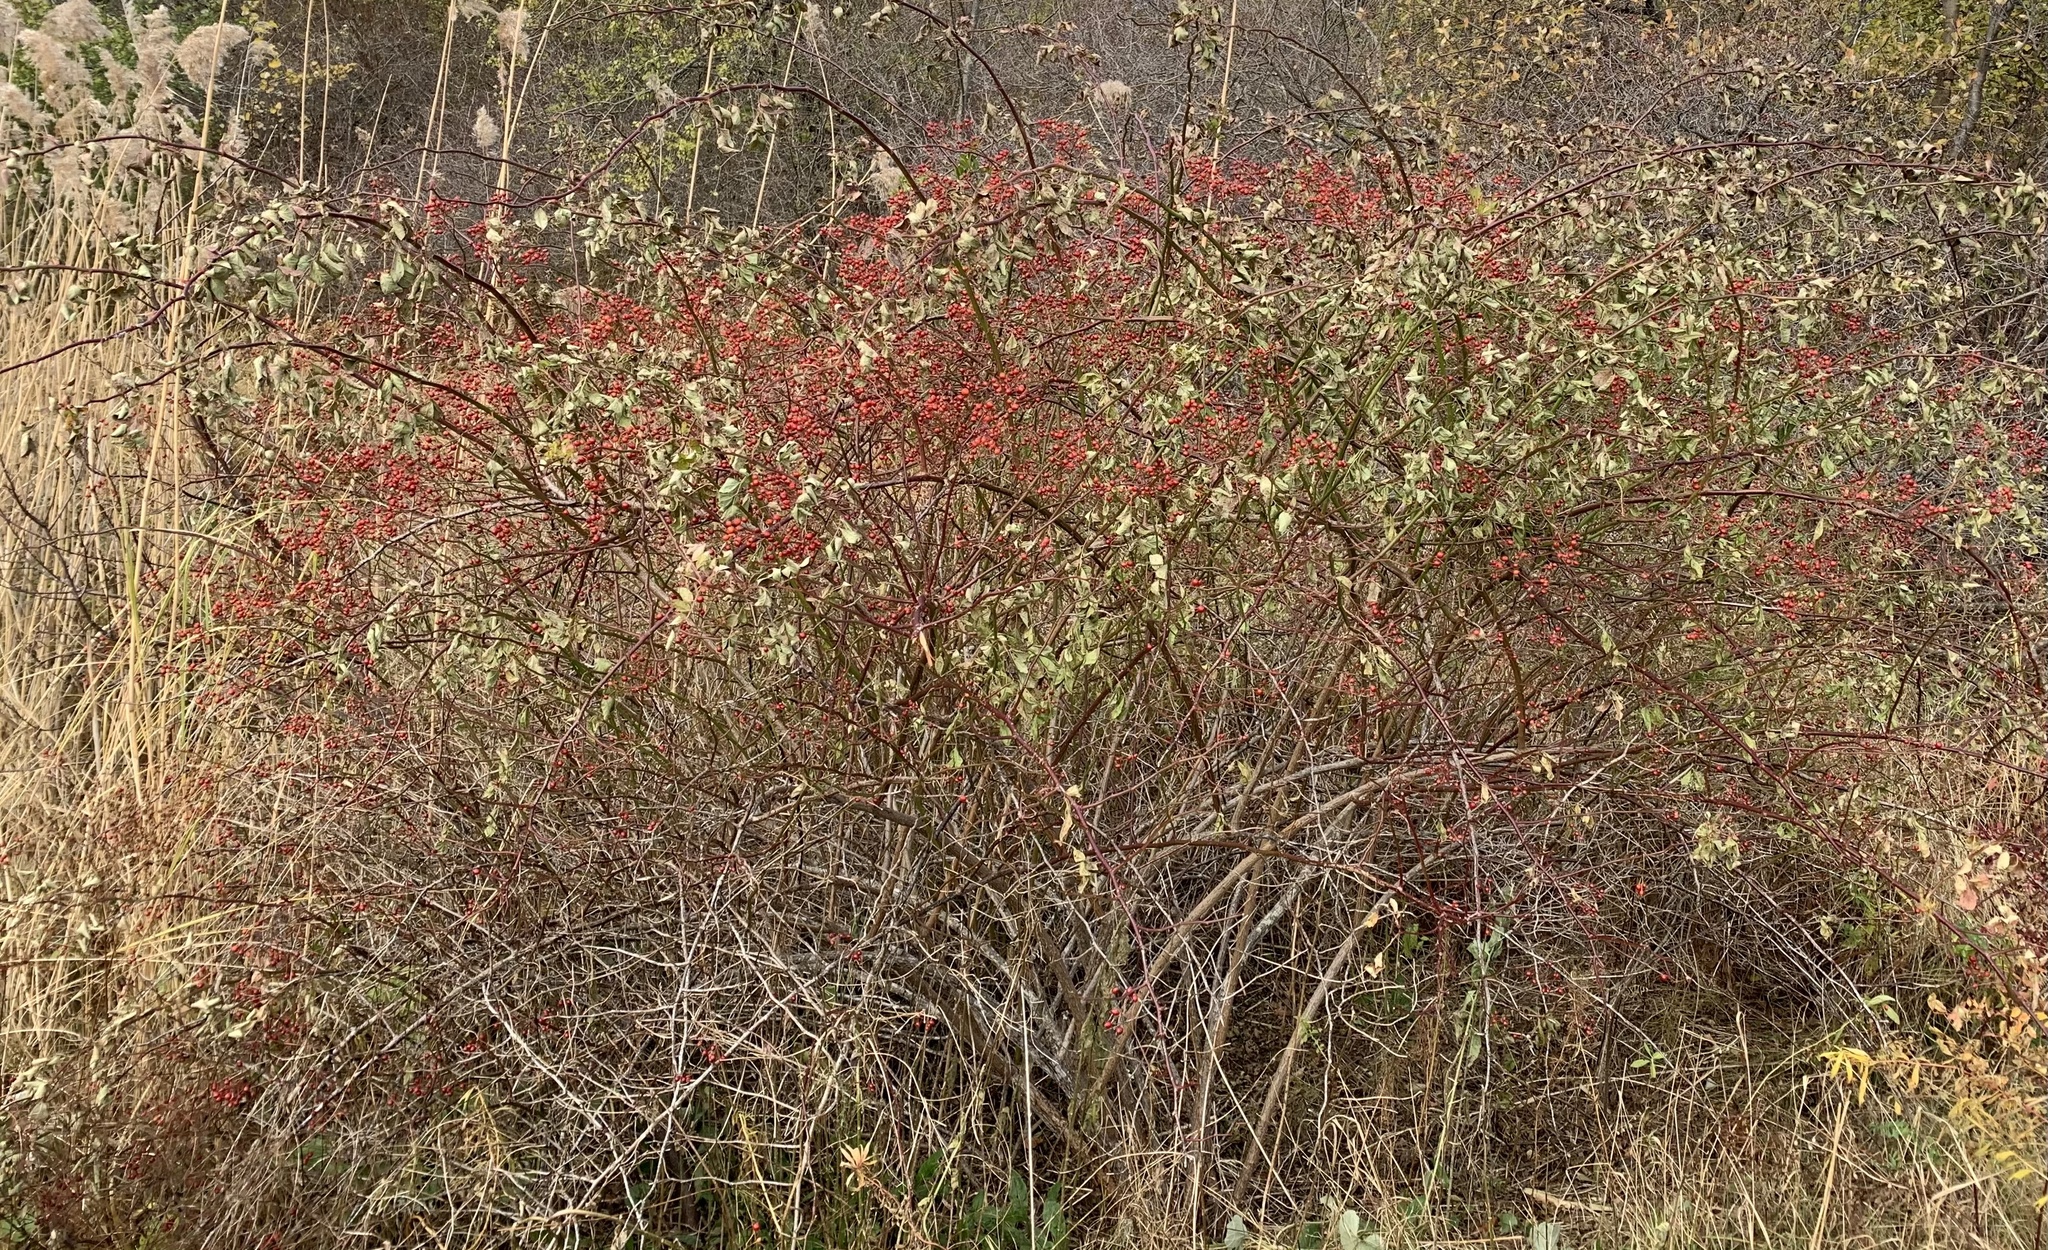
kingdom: Plantae
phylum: Tracheophyta
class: Magnoliopsida
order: Rosales
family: Rosaceae
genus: Rosa
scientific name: Rosa multiflora
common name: Multiflora rose
